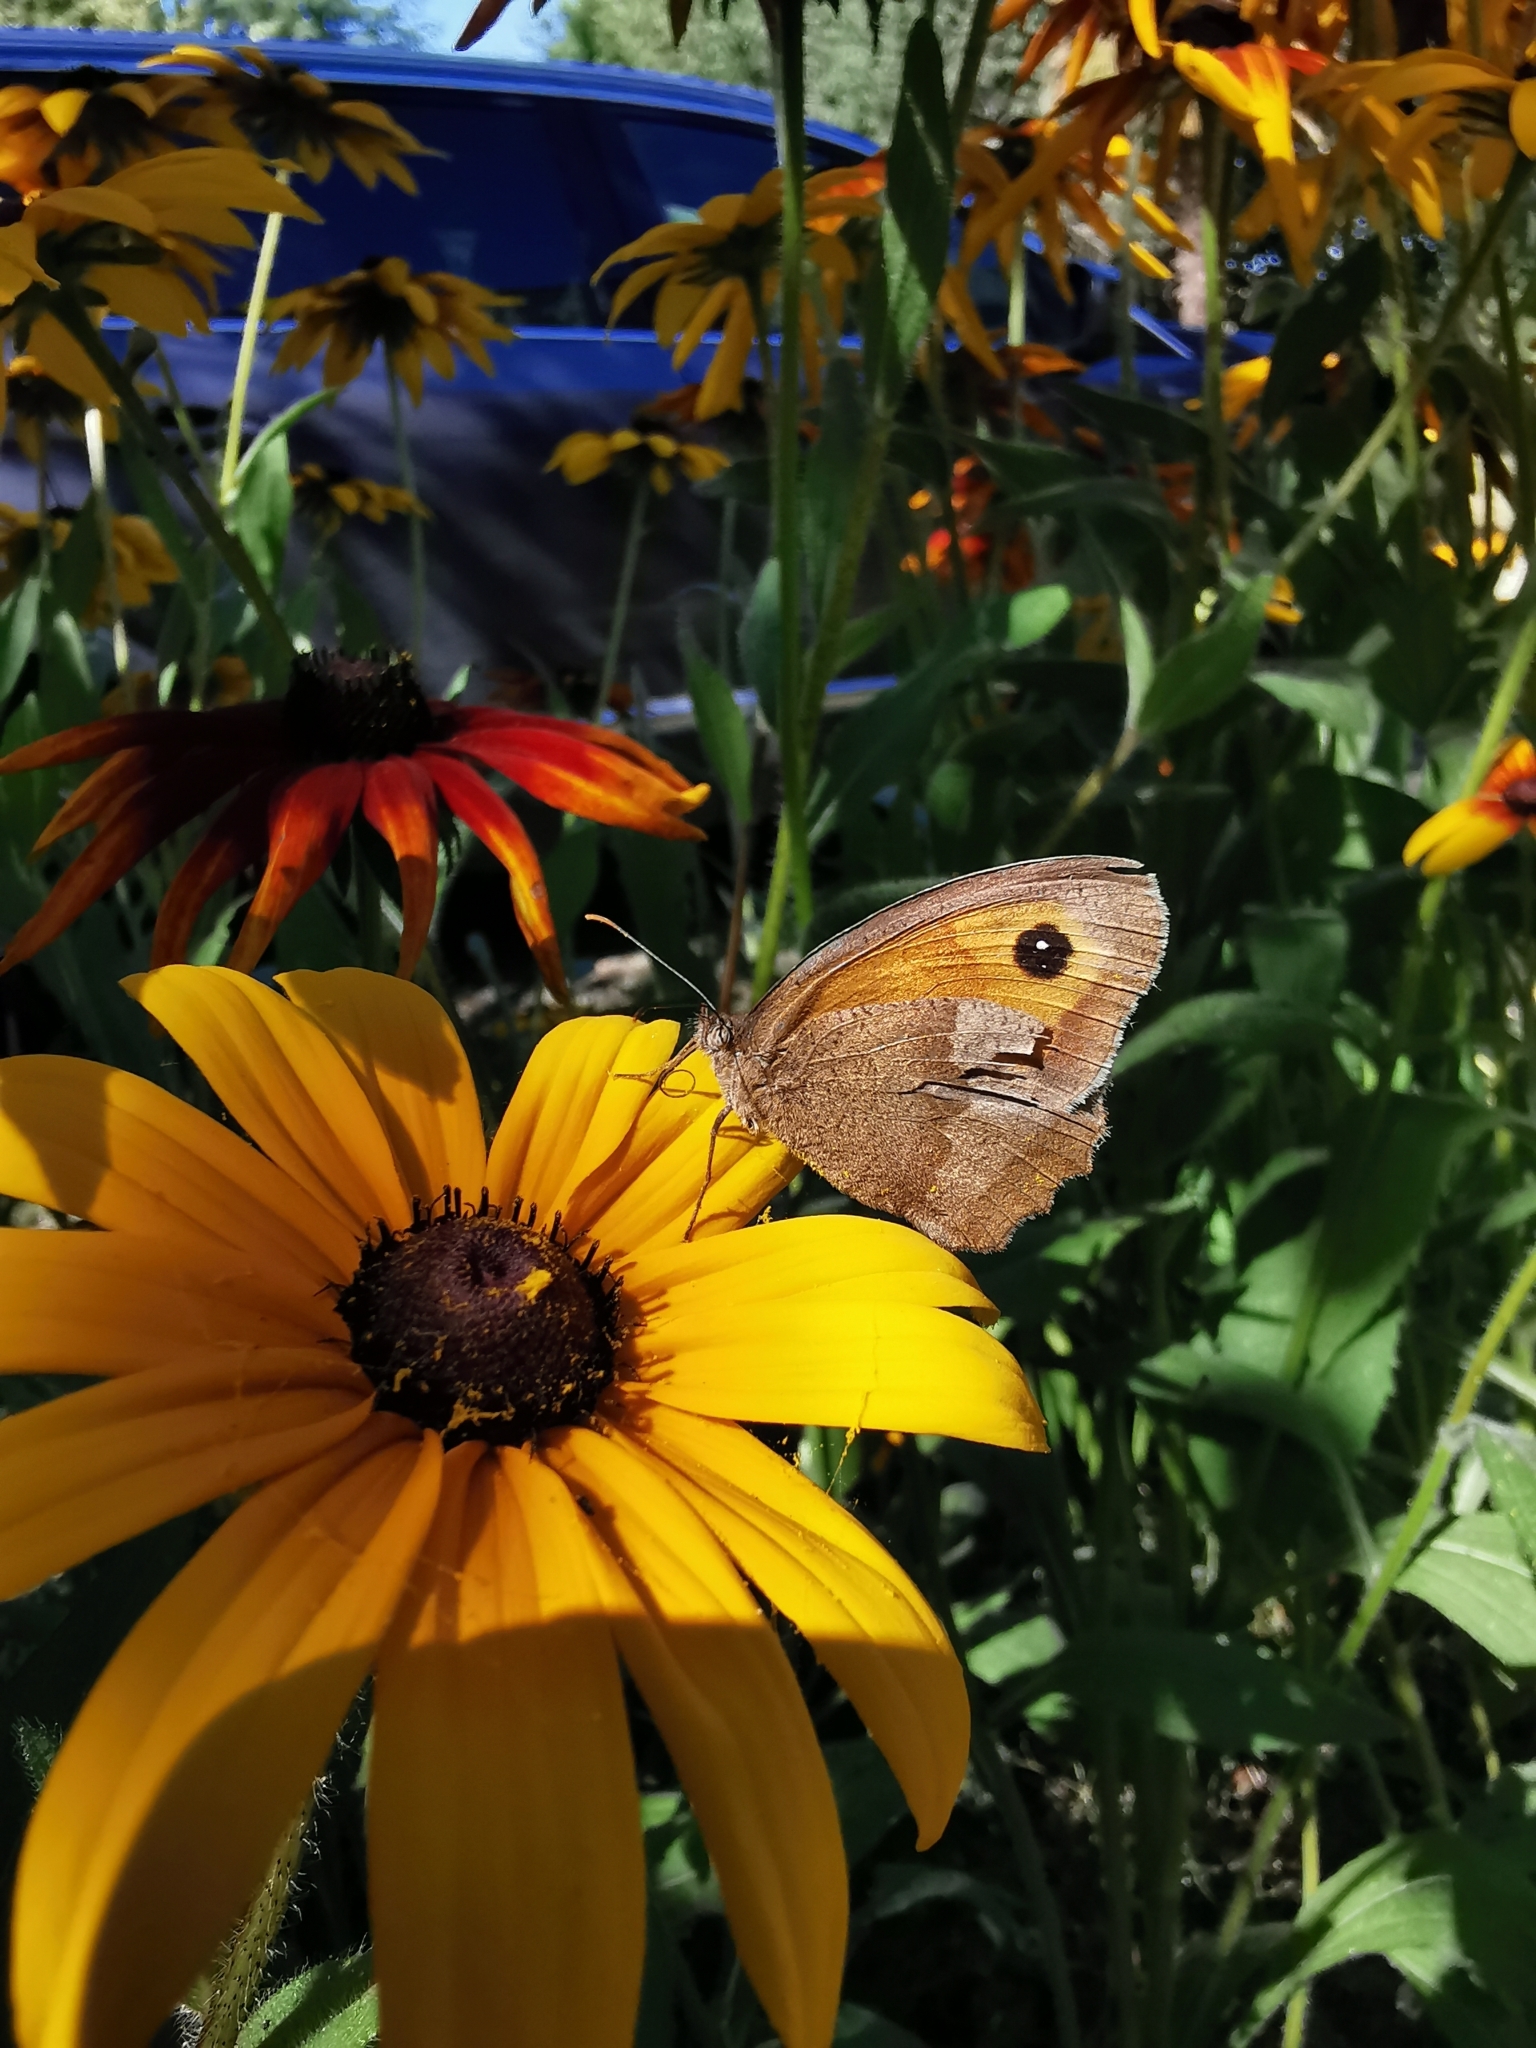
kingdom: Animalia
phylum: Arthropoda
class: Insecta
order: Lepidoptera
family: Nymphalidae
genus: Maniola
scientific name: Maniola jurtina
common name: Meadow brown
